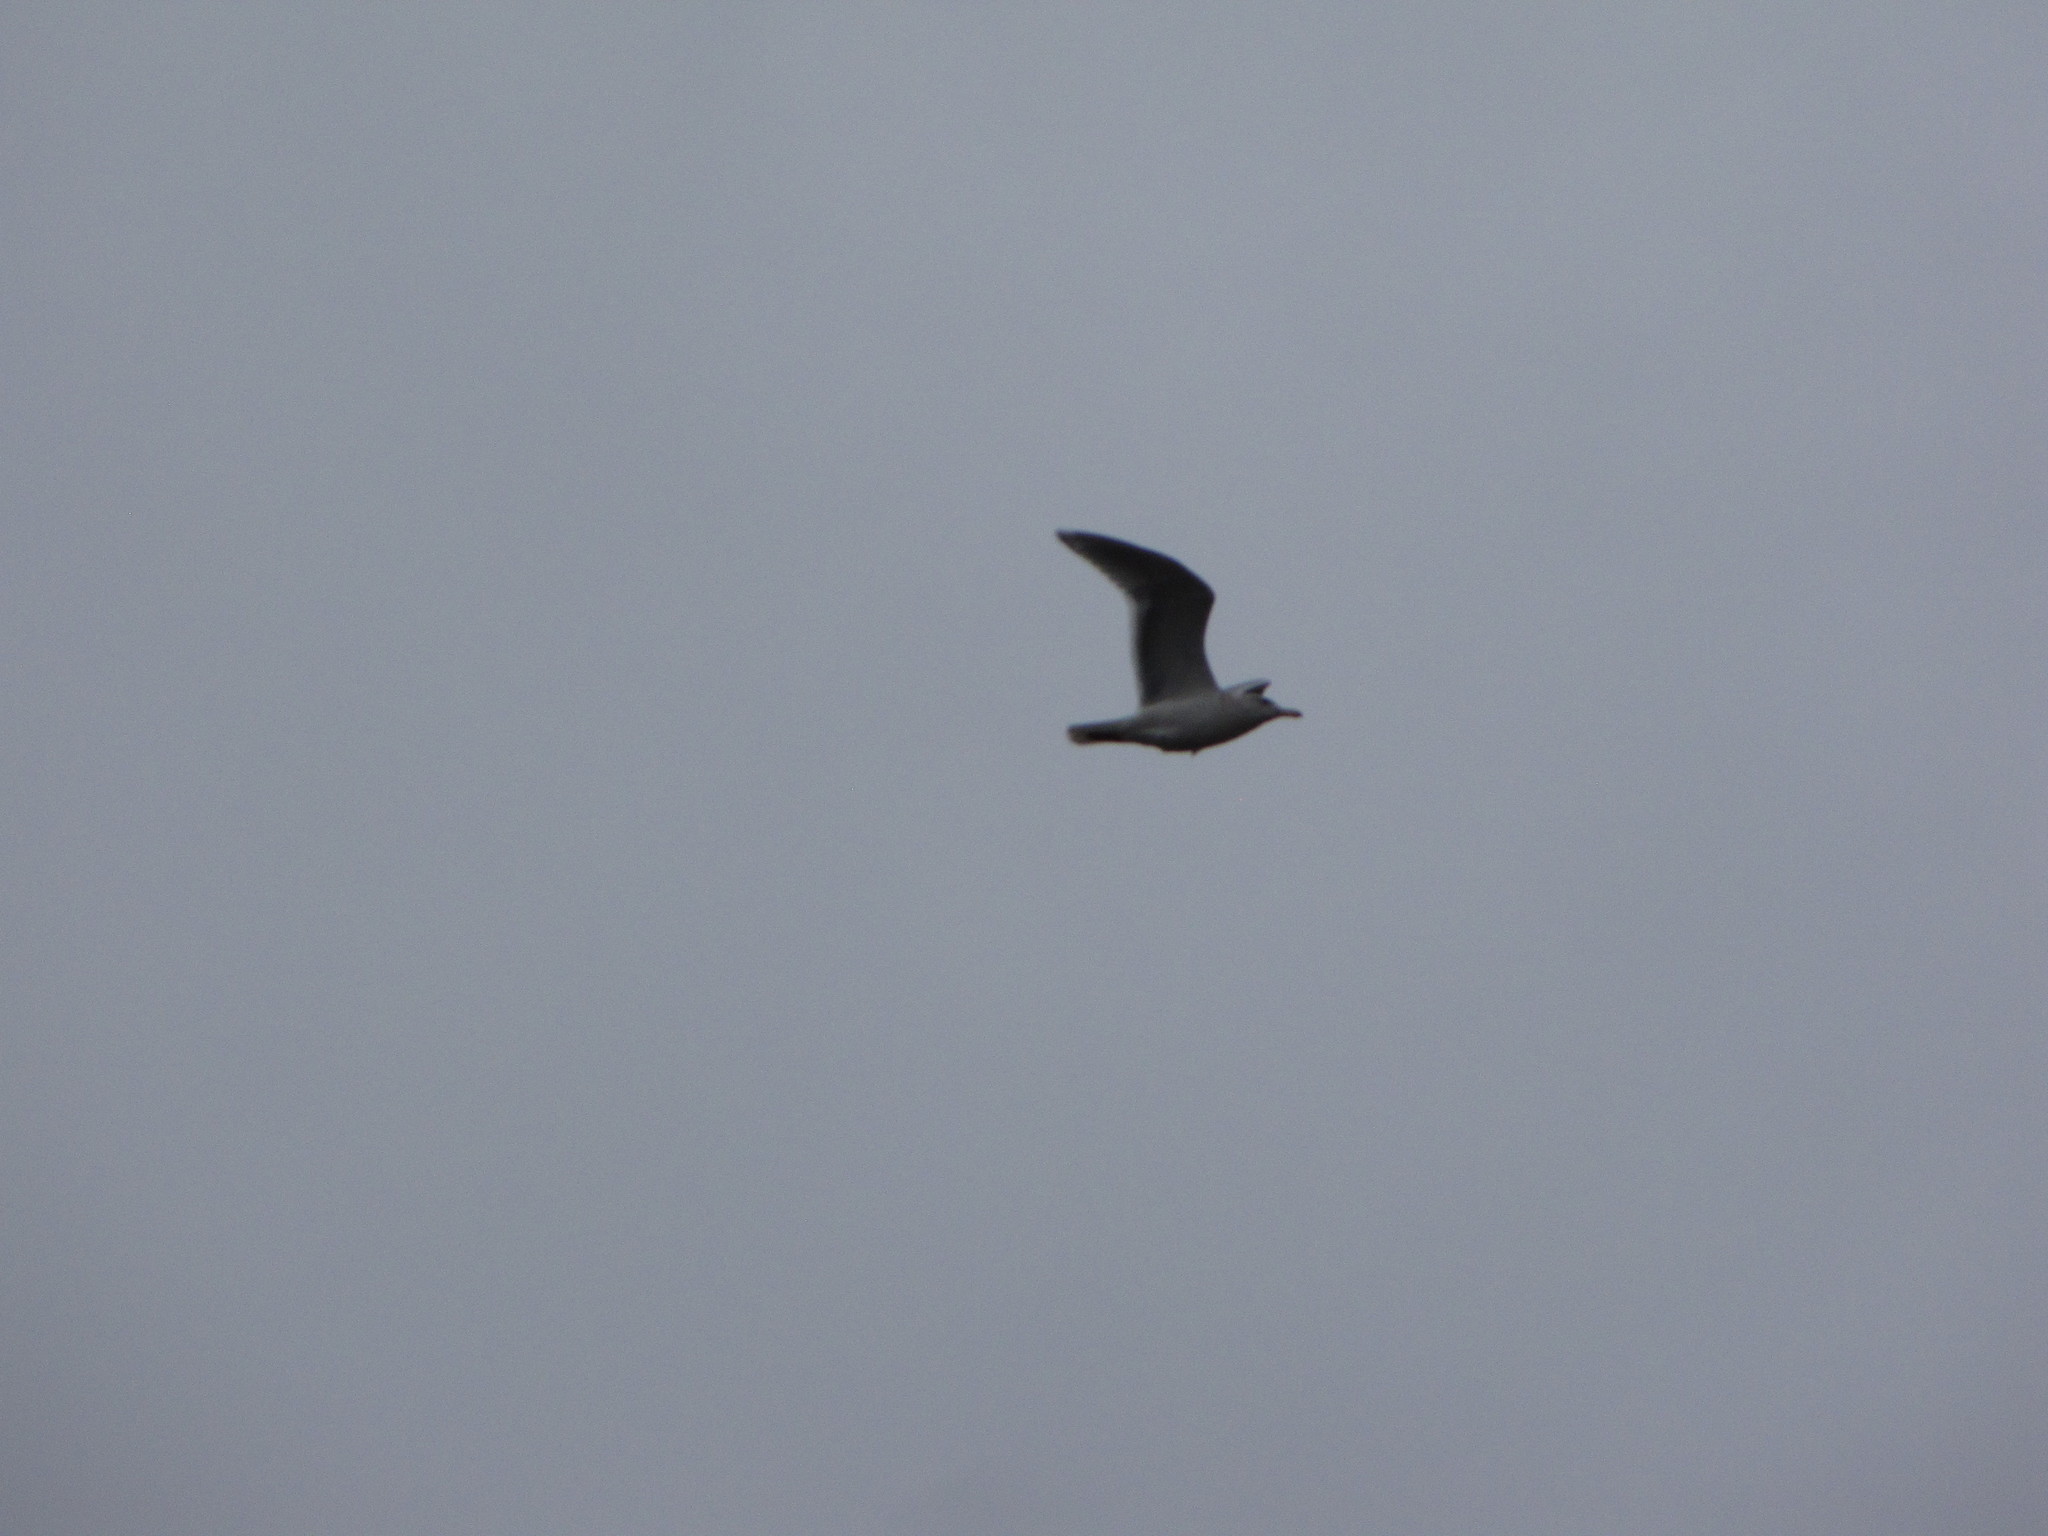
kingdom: Animalia
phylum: Chordata
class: Aves
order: Charadriiformes
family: Laridae
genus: Larus
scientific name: Larus glaucescens
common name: Glaucous-winged gull
